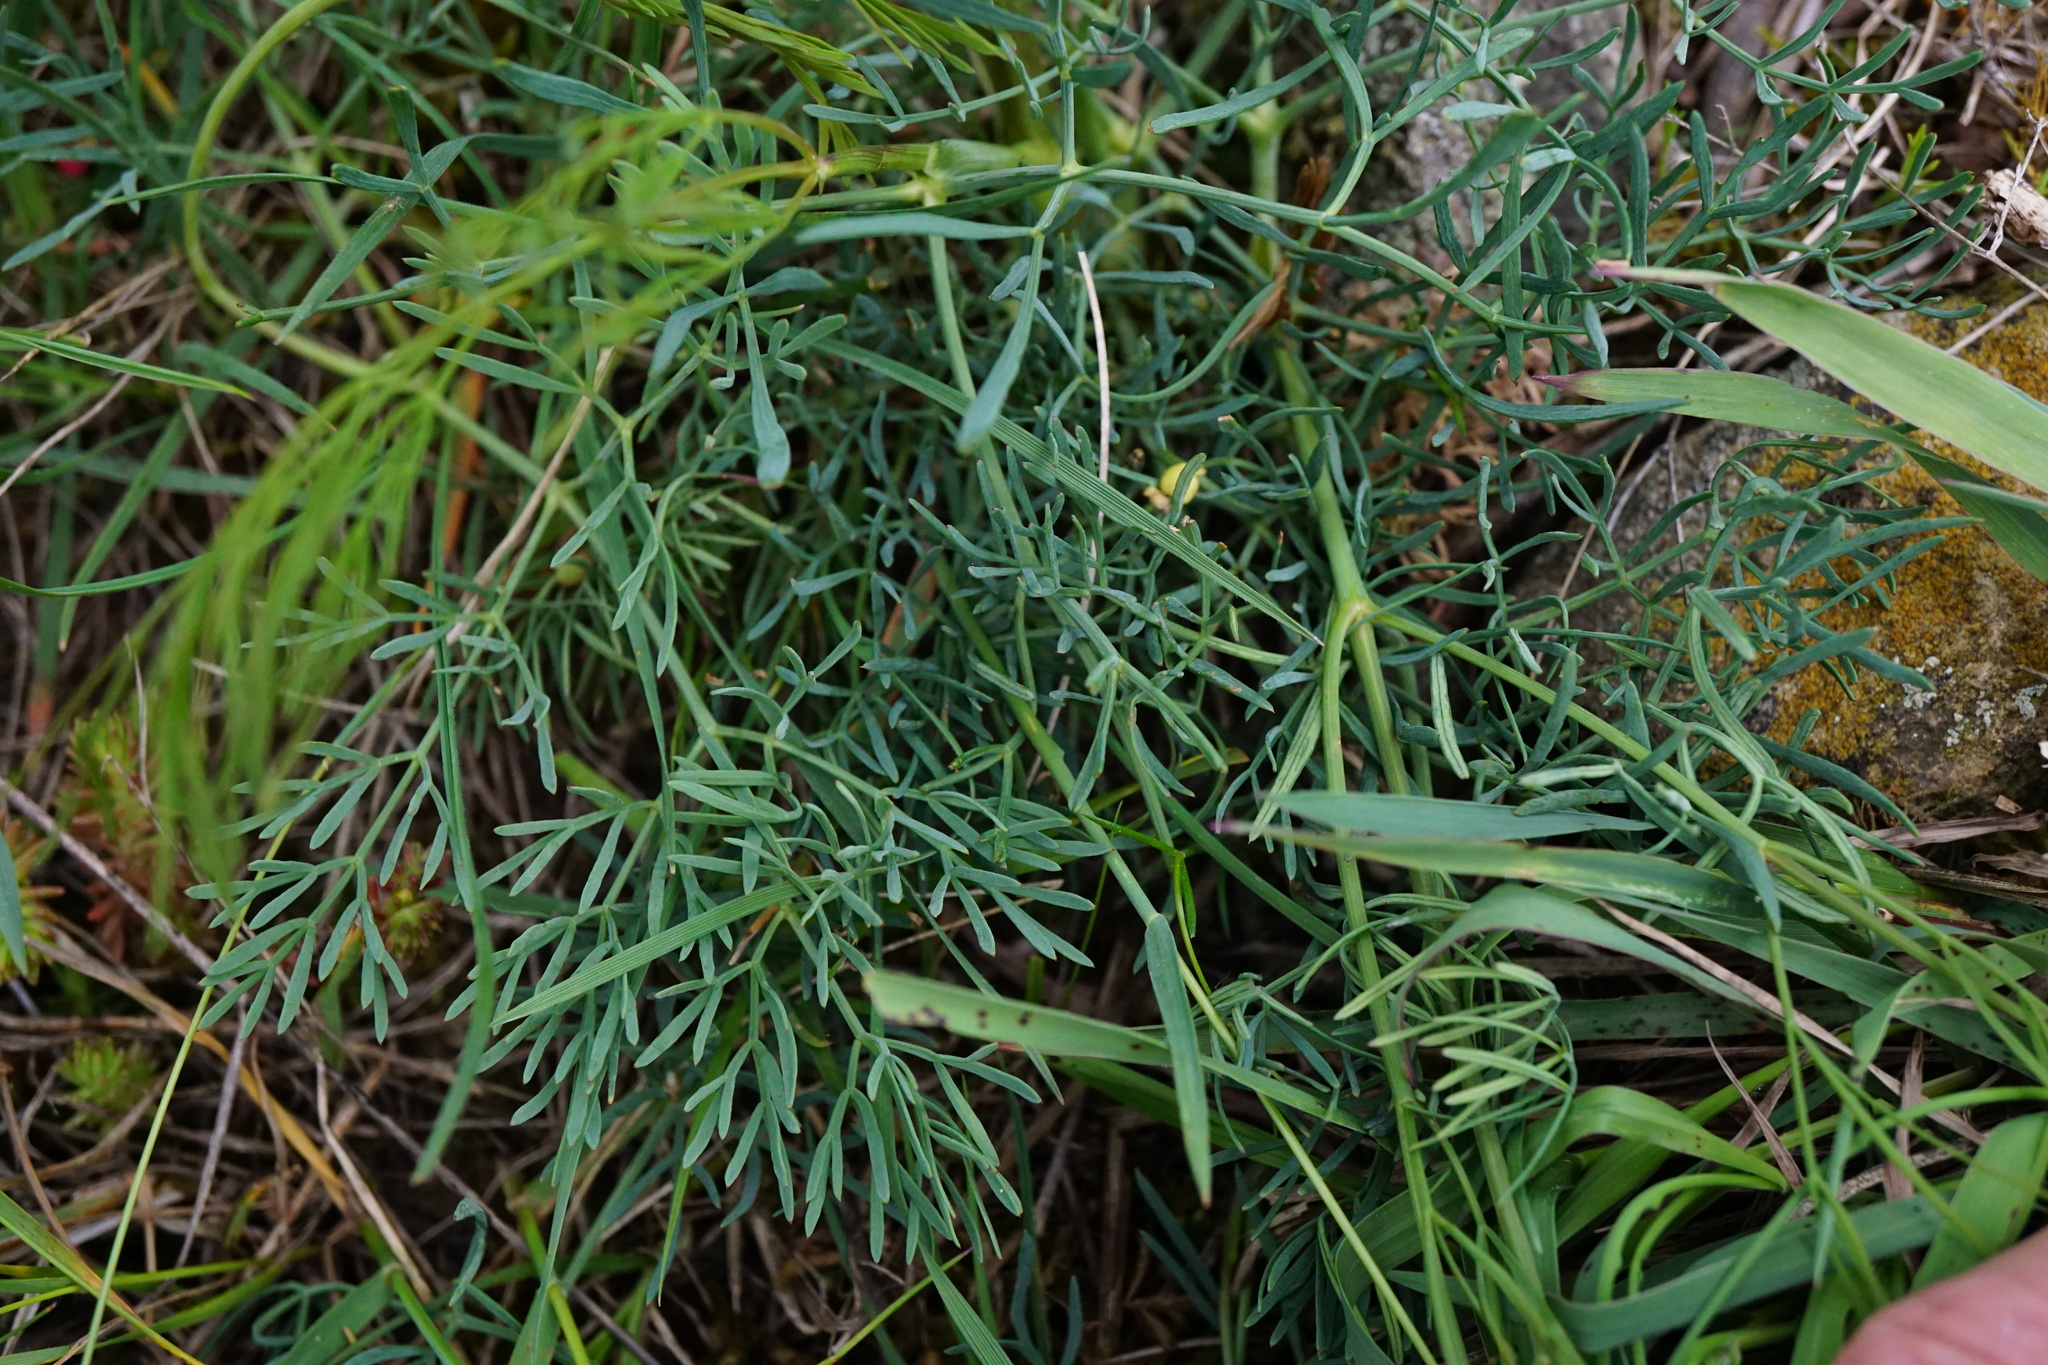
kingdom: Plantae
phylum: Tracheophyta
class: Magnoliopsida
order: Apiales
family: Apiaceae
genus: Seseli
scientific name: Seseli osseum
